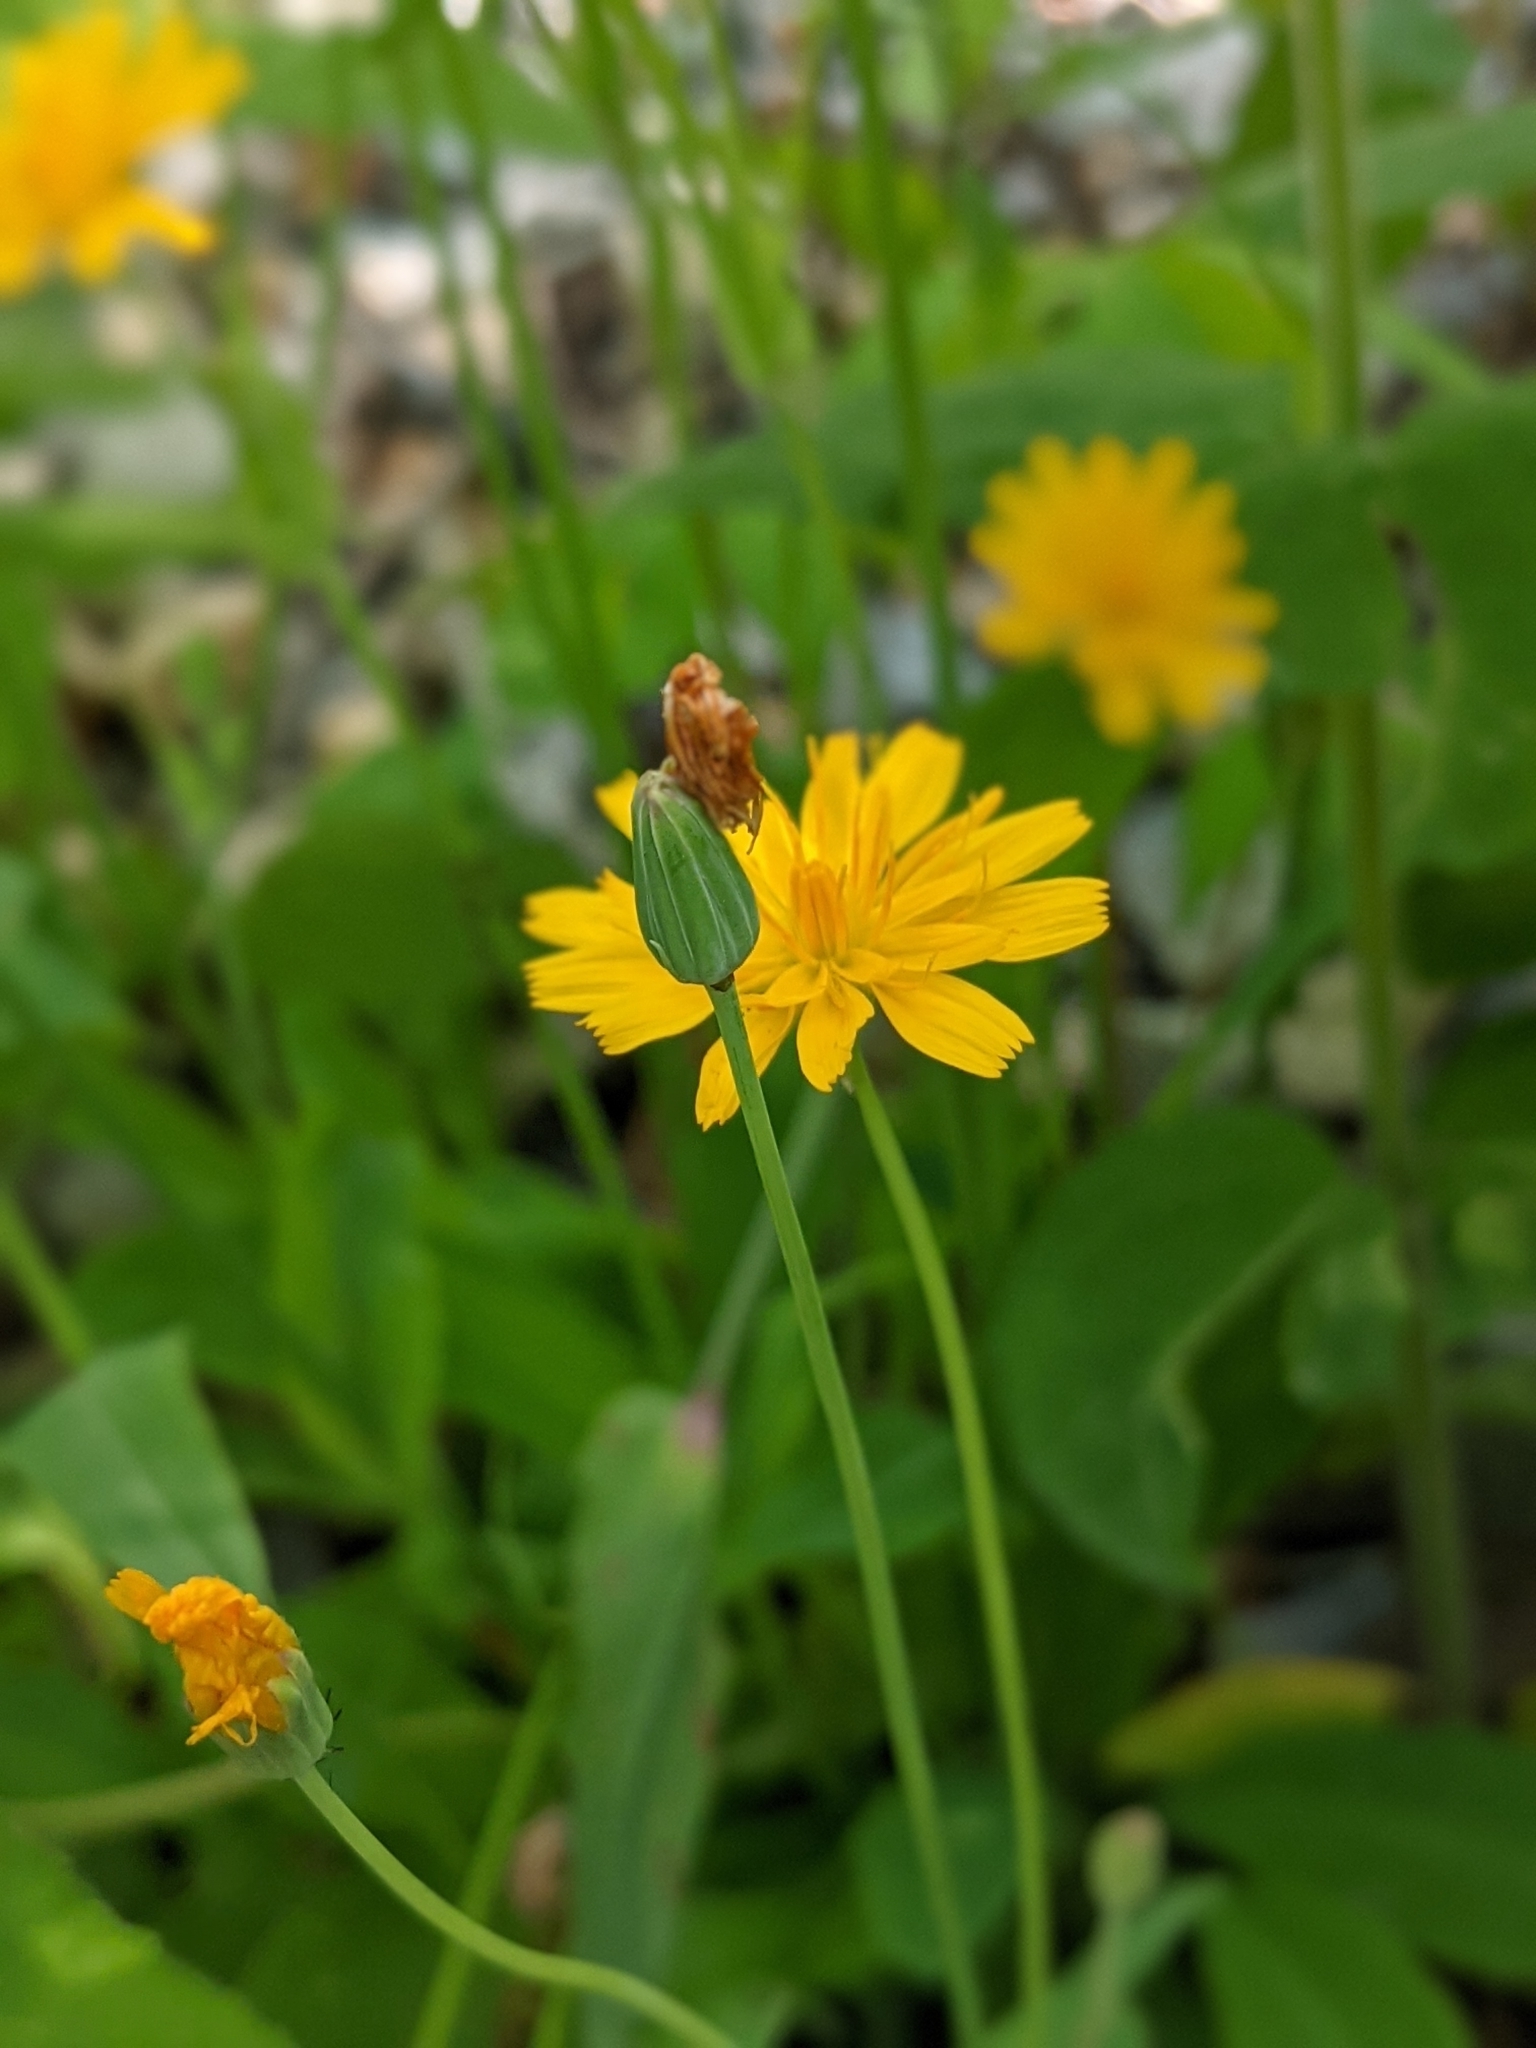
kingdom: Plantae
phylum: Tracheophyta
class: Magnoliopsida
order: Asterales
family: Asteraceae
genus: Krigia
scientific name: Krigia biflora
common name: Orange dwarf-dandelion
